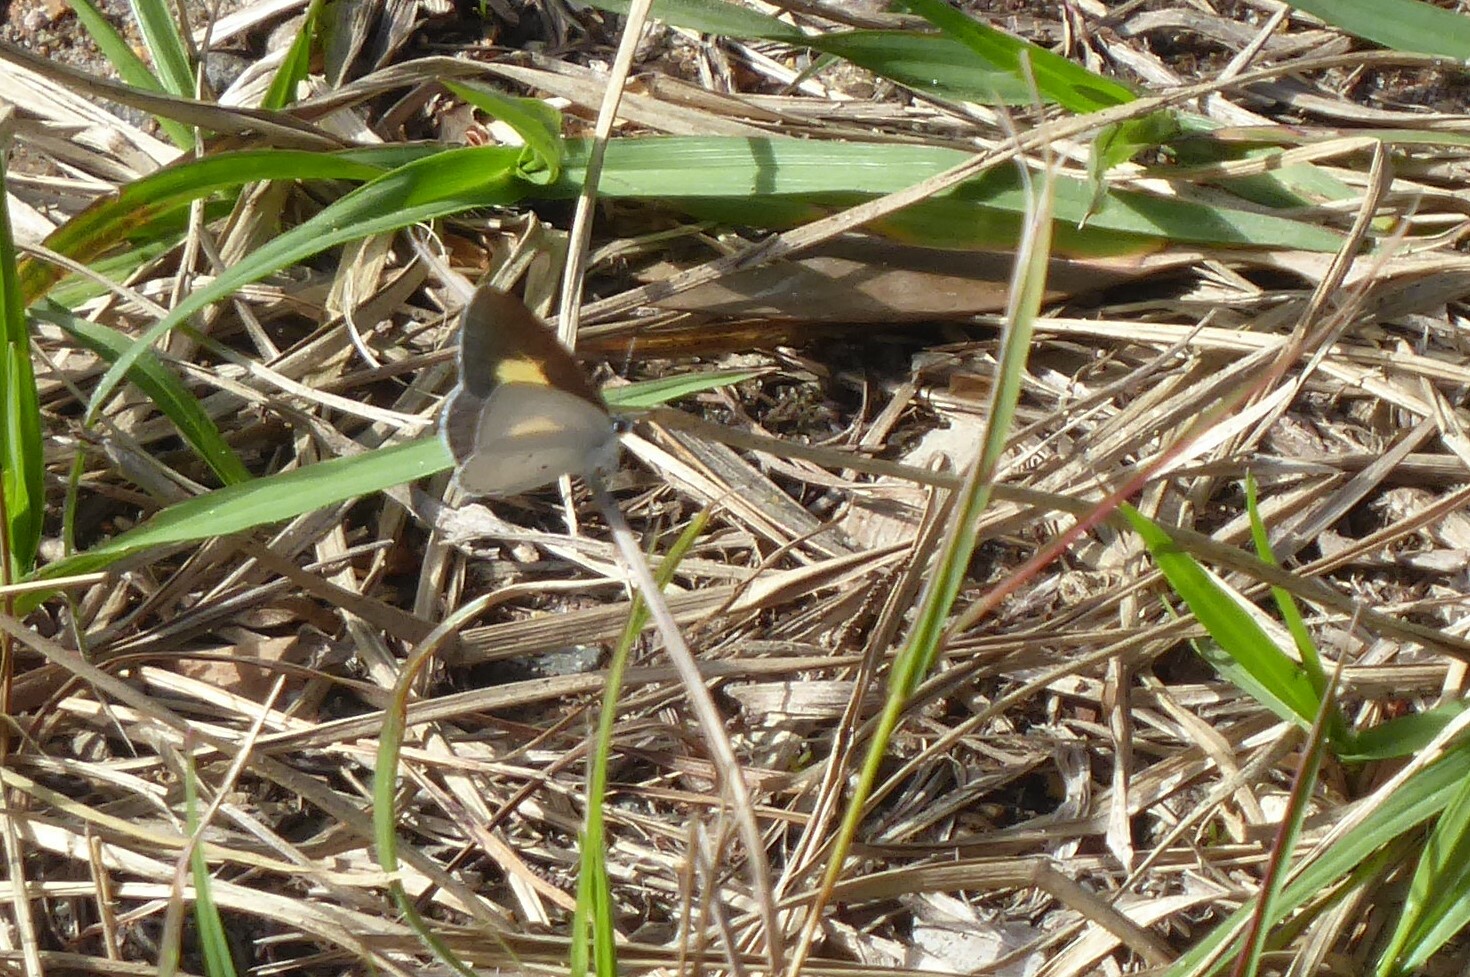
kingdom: Animalia
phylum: Arthropoda
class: Insecta
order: Lepidoptera
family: Lycaenidae
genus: Candalides
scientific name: Candalides xanthospilos
